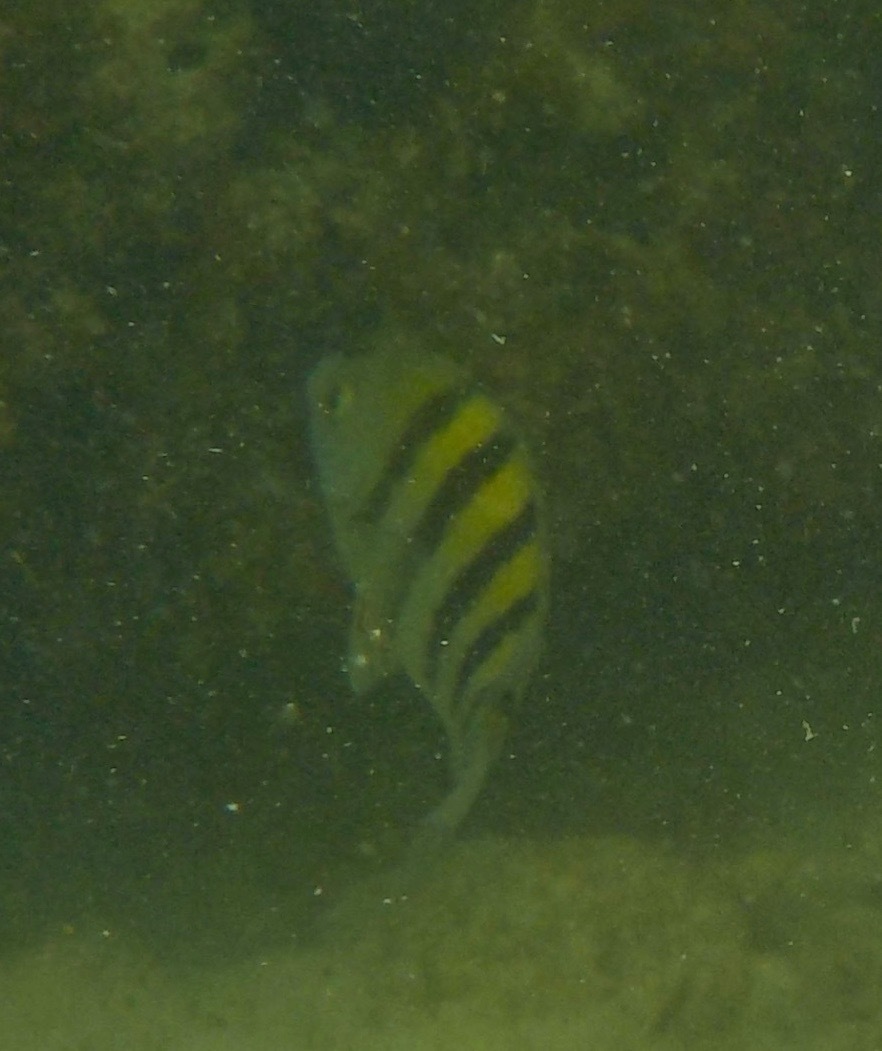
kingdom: Animalia
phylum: Chordata
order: Perciformes
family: Pomacentridae
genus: Abudefduf
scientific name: Abudefduf saxatilis
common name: Sergeant major
